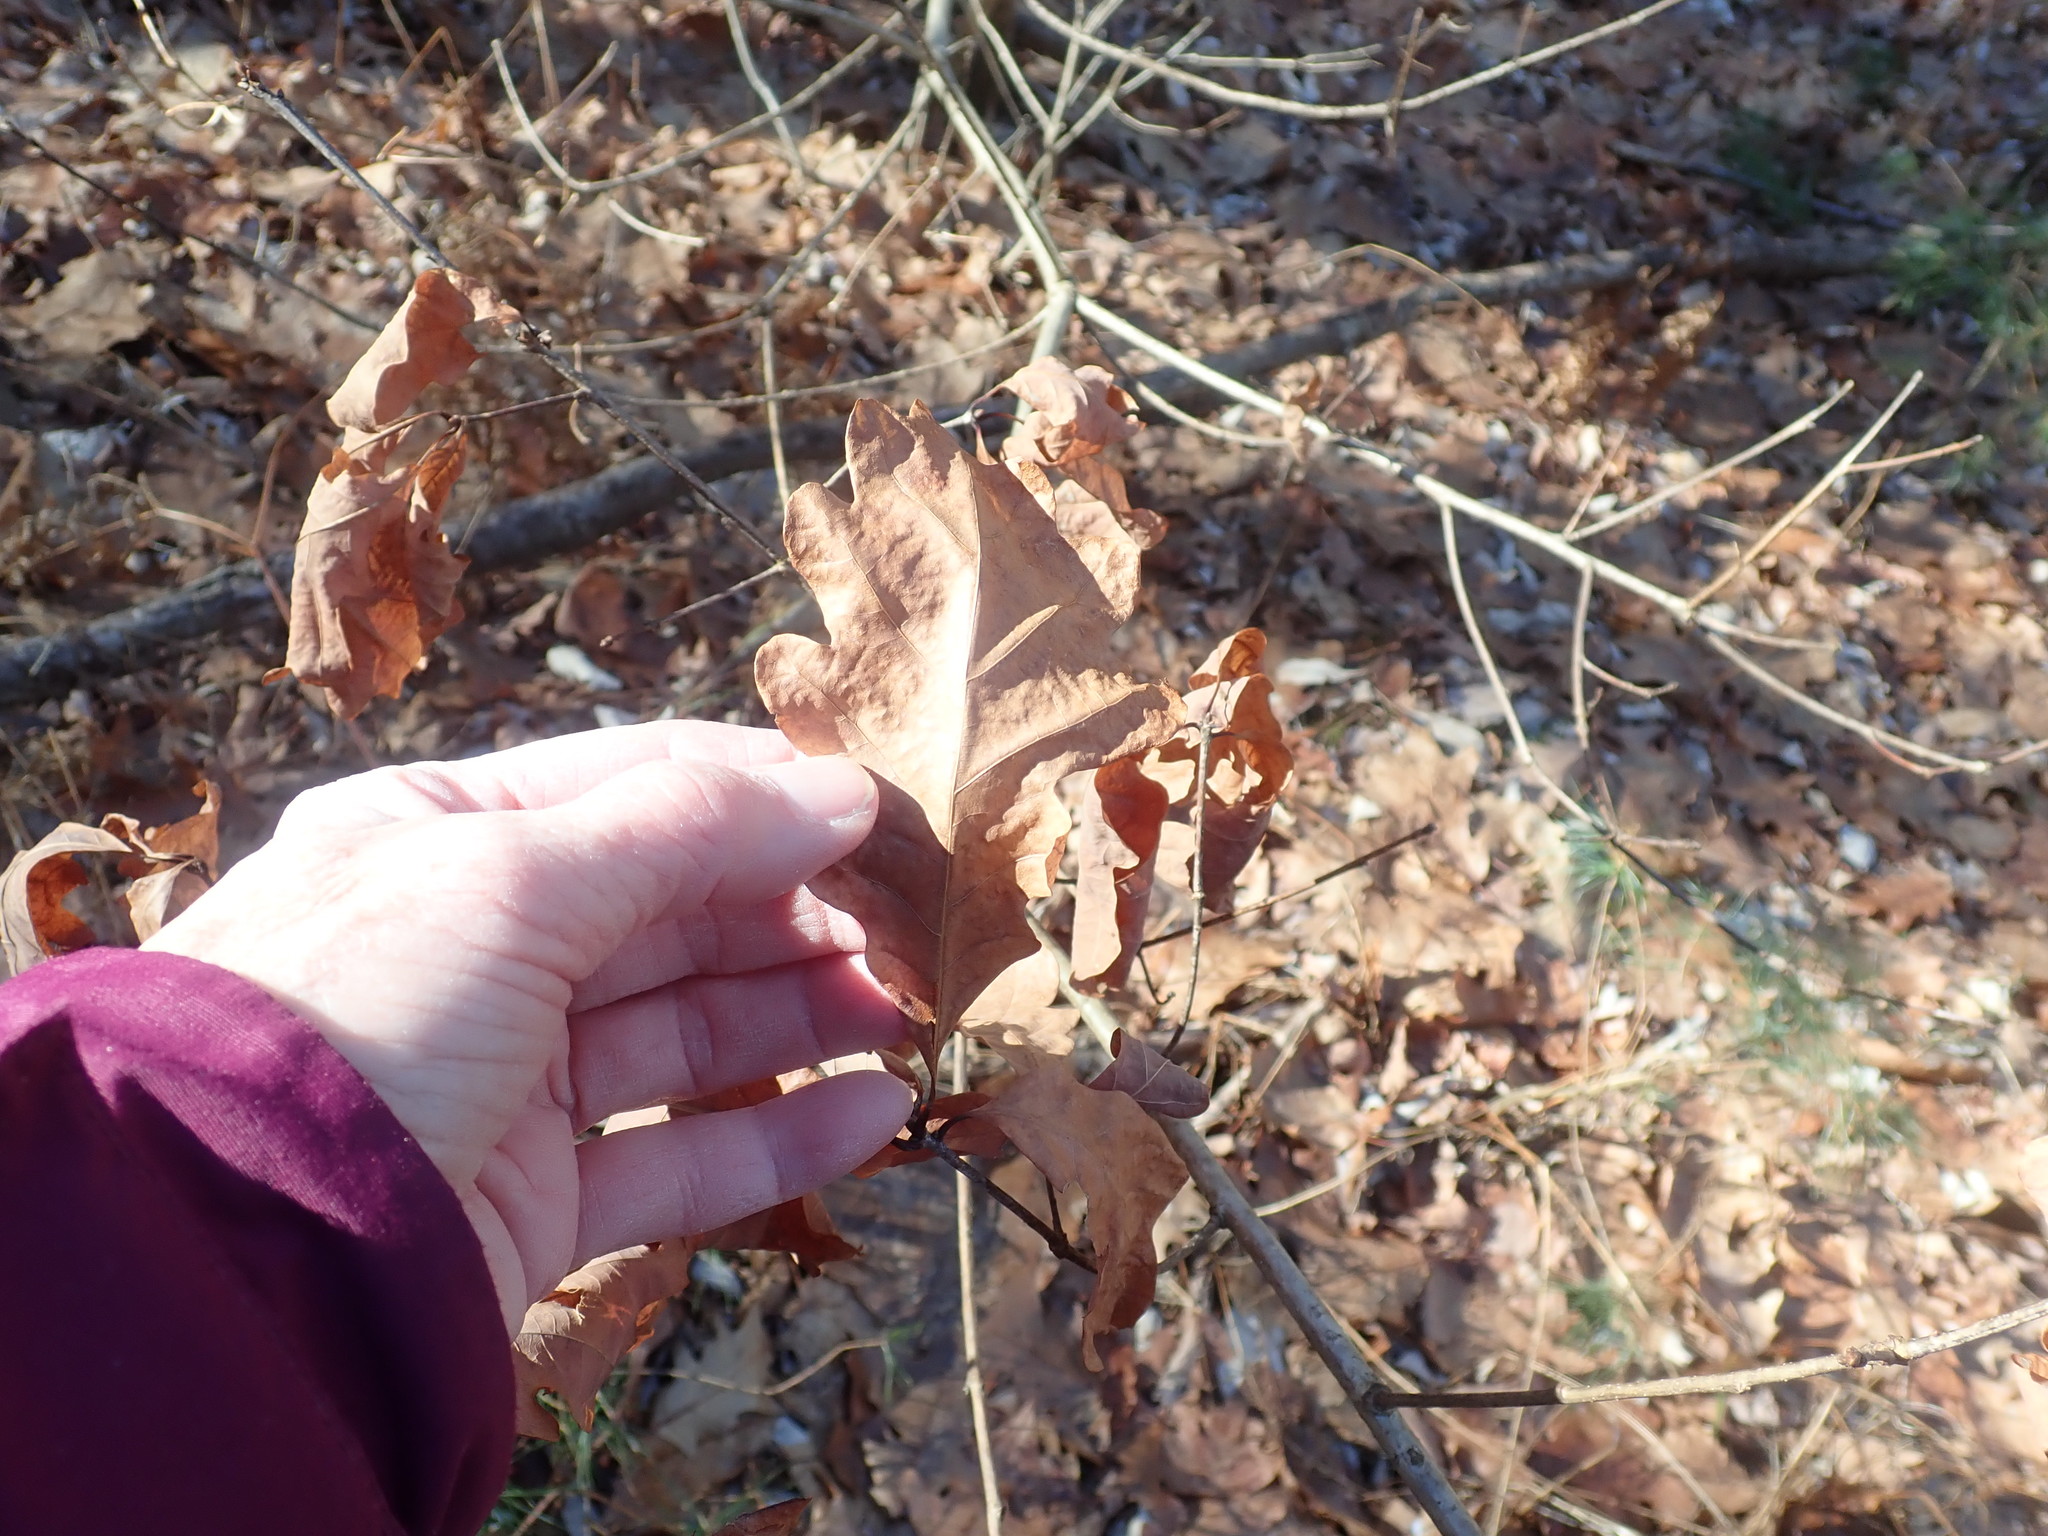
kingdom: Plantae
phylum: Tracheophyta
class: Magnoliopsida
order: Fagales
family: Fagaceae
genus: Quercus
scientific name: Quercus alba
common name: White oak
